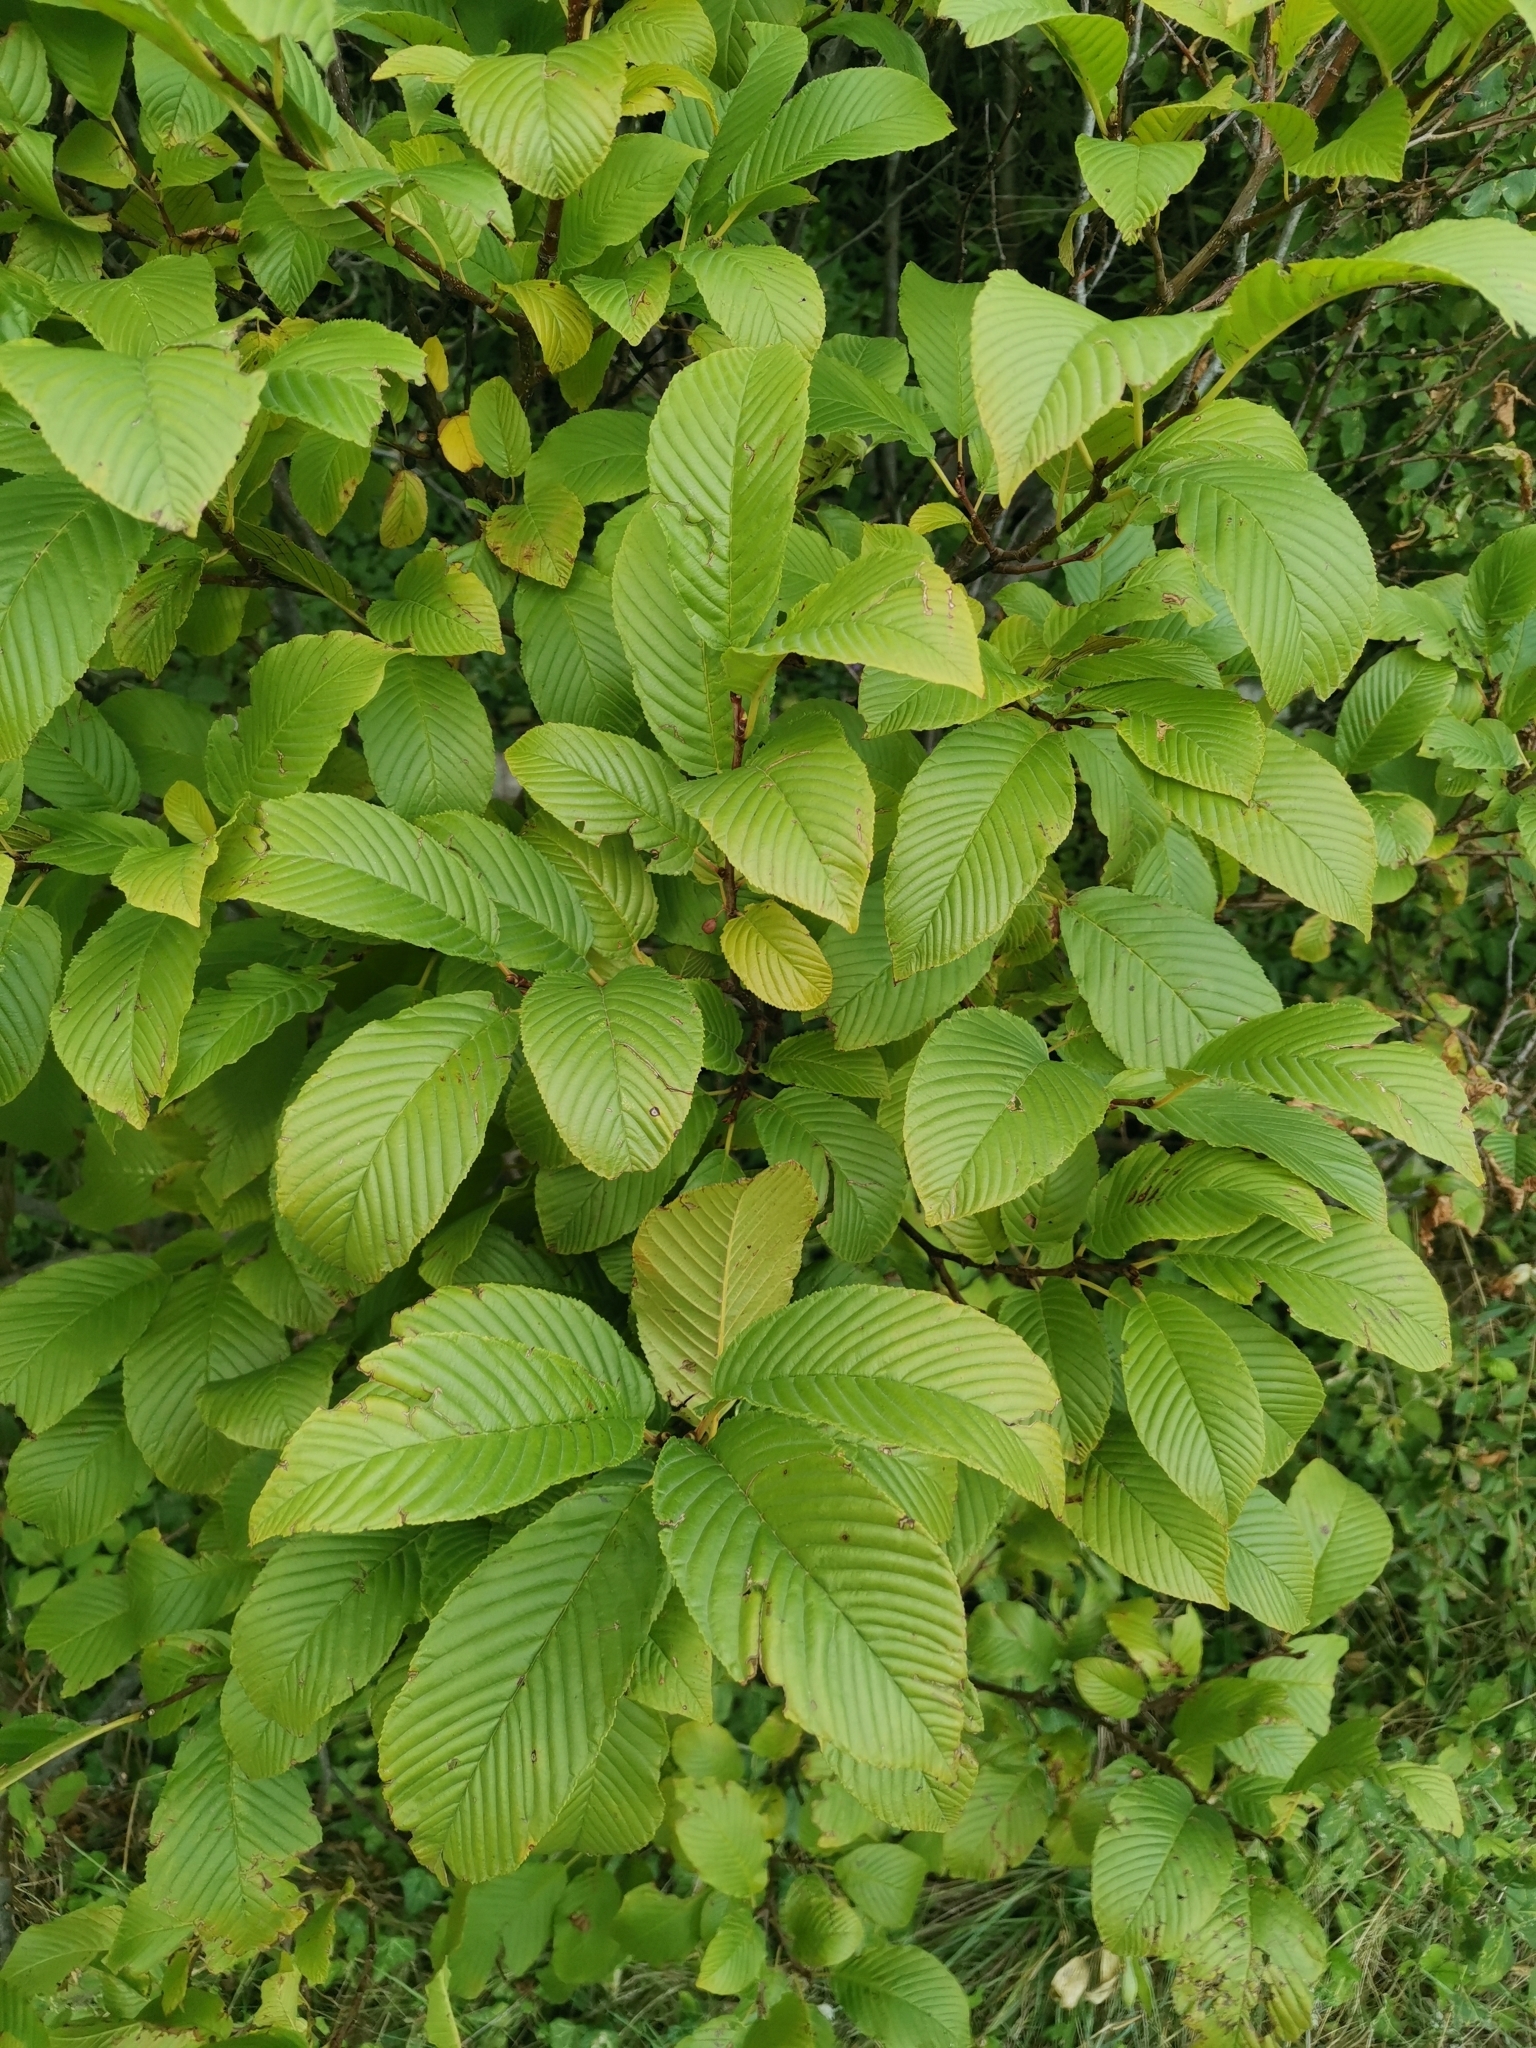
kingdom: Plantae
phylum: Tracheophyta
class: Magnoliopsida
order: Rosales
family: Rhamnaceae
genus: Atadinus
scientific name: Atadinus fallax
